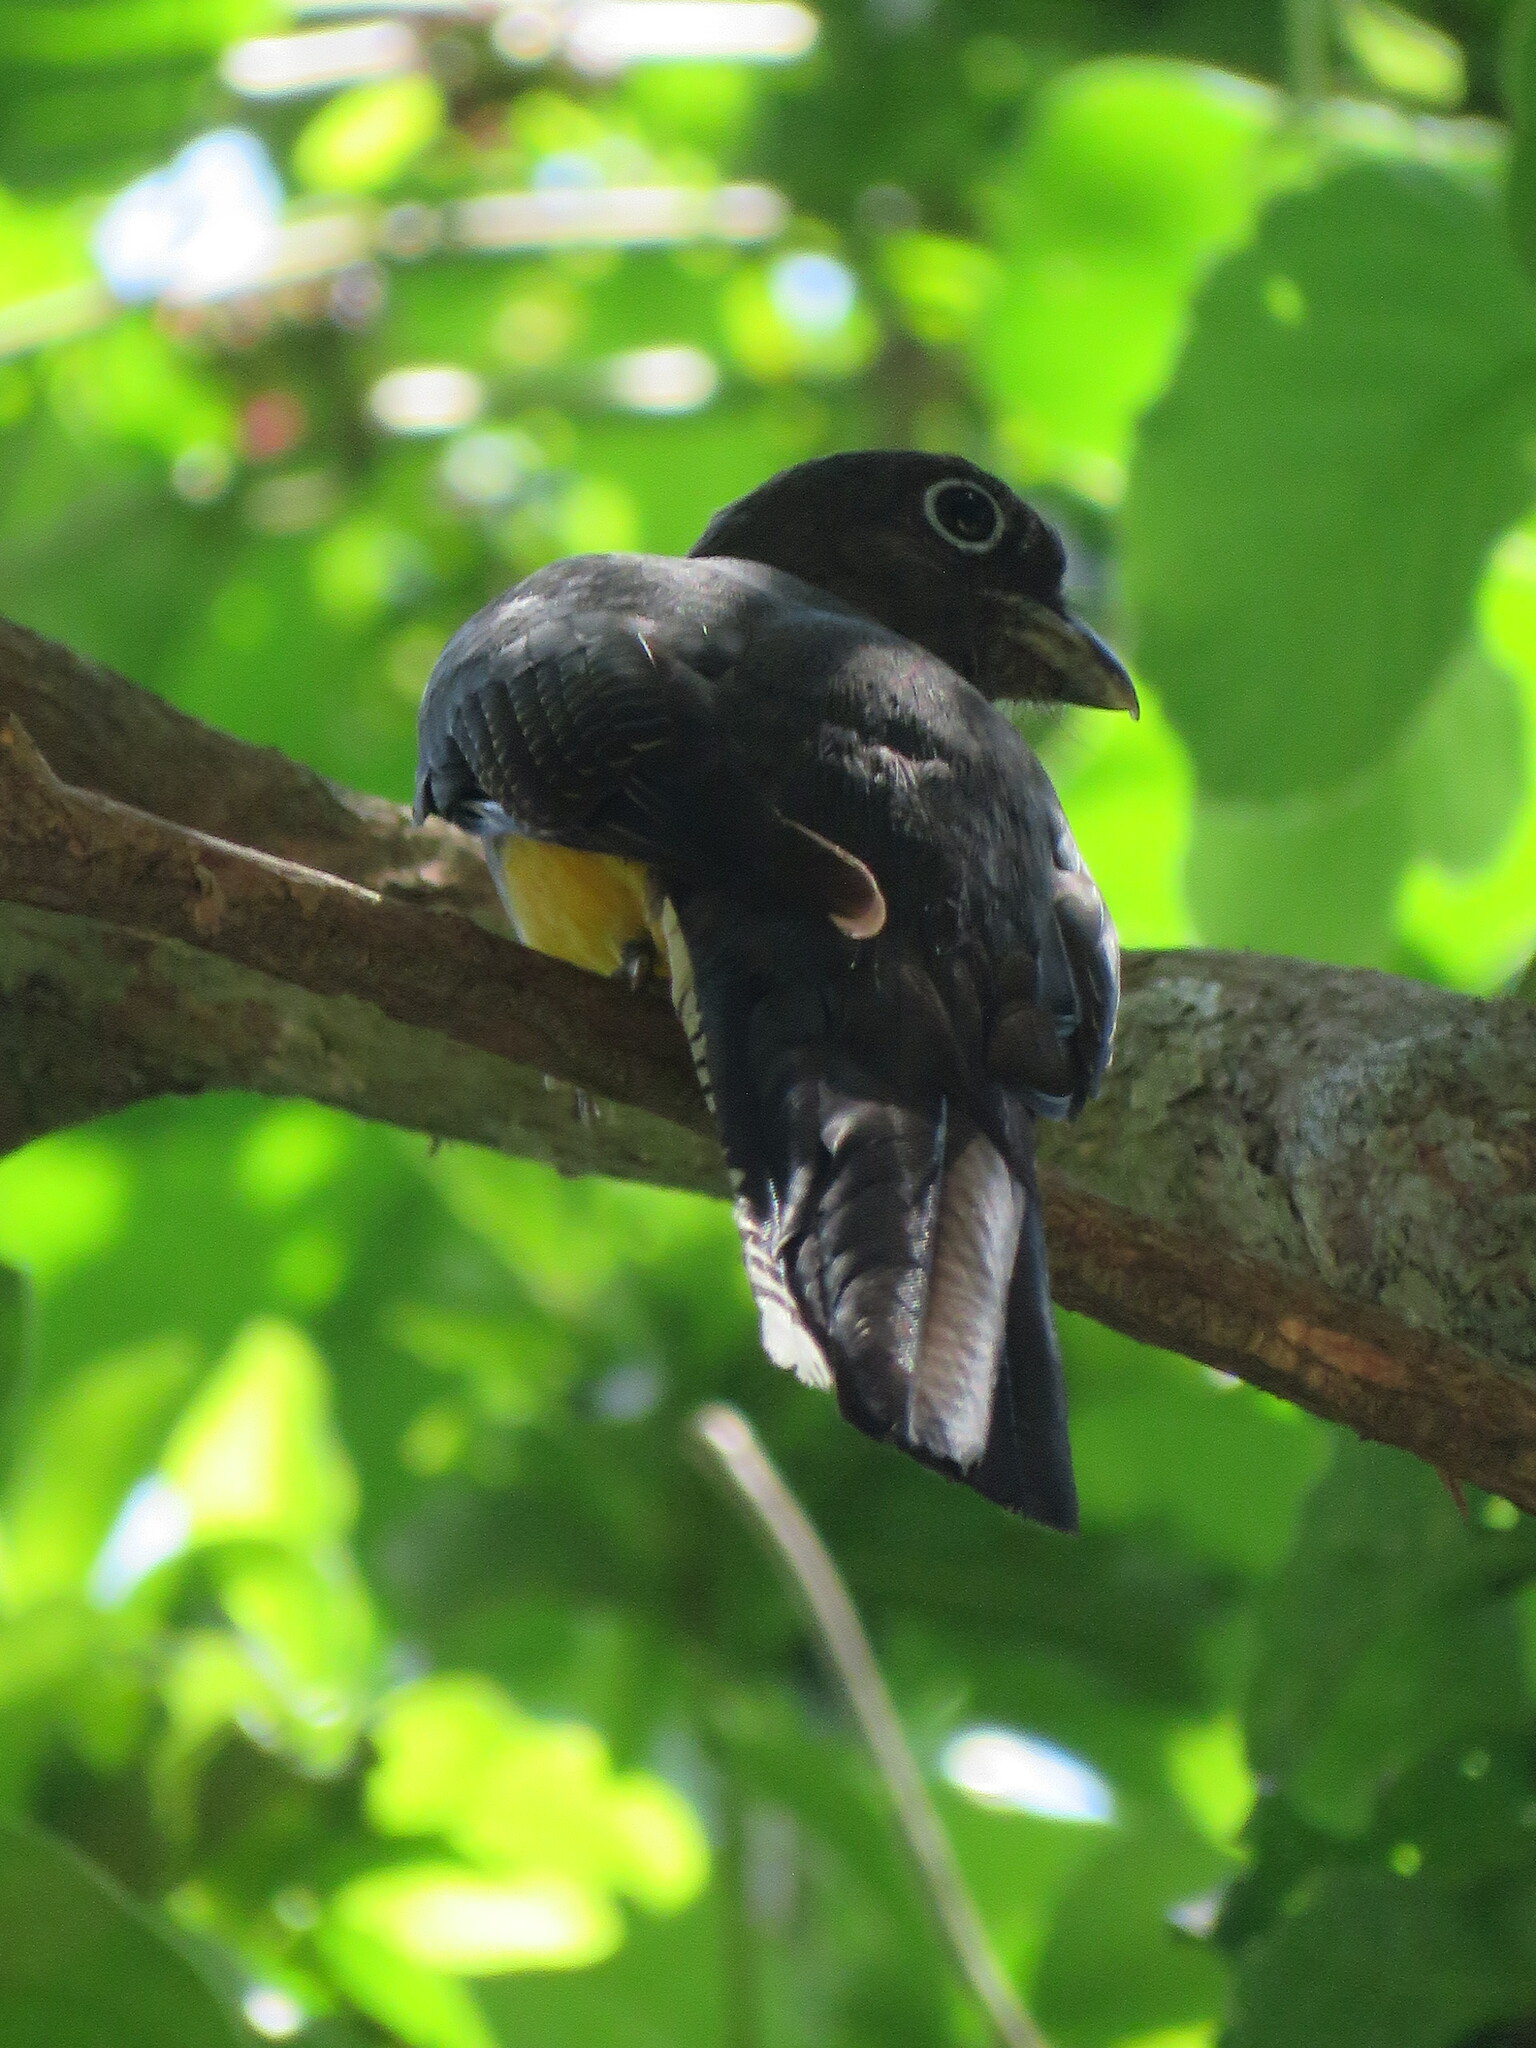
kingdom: Animalia
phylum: Chordata
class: Aves
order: Trogoniformes
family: Trogonidae
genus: Trogon
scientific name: Trogon viridis
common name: Green-backed trogon
